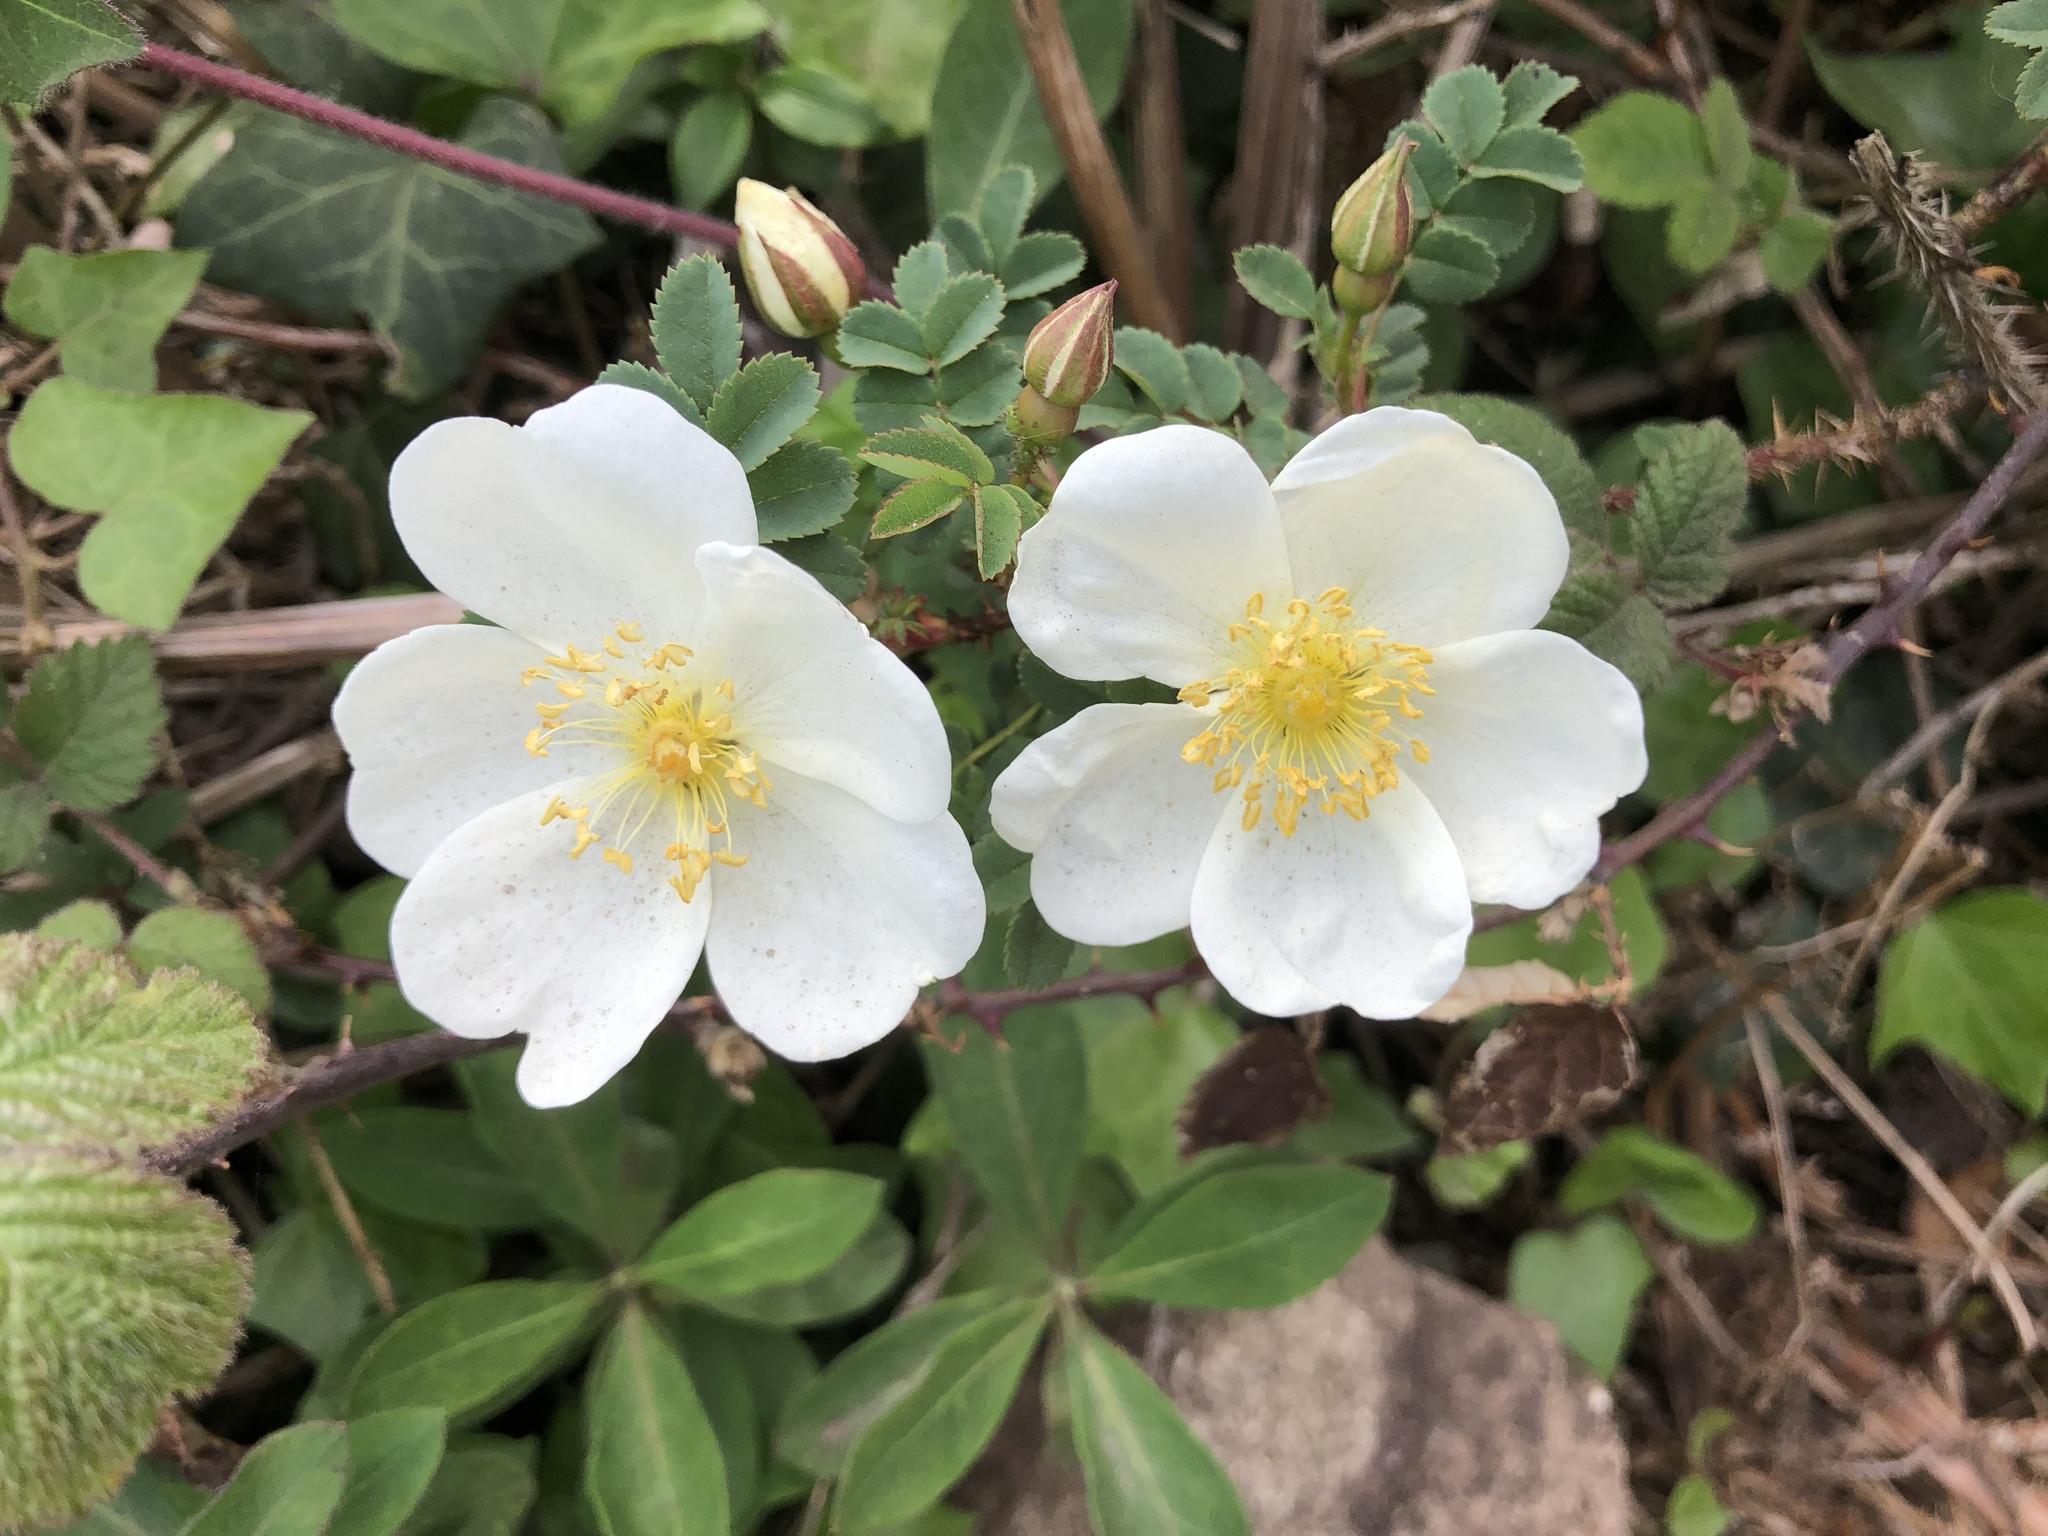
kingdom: Plantae
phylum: Tracheophyta
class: Magnoliopsida
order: Rosales
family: Rosaceae
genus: Rosa
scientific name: Rosa spinosissima
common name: Burnet rose
